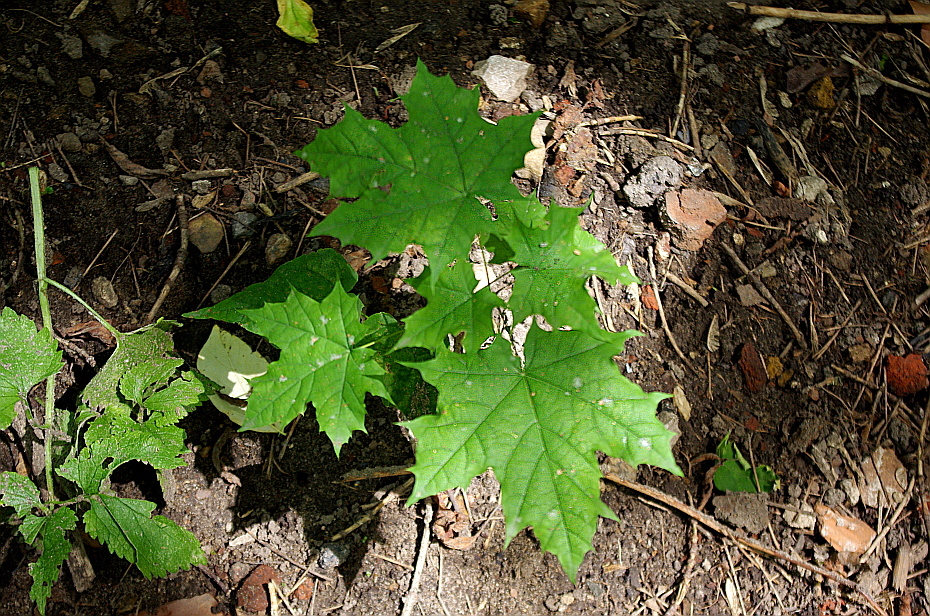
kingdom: Plantae
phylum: Tracheophyta
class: Magnoliopsida
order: Sapindales
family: Sapindaceae
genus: Acer
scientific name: Acer platanoides
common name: Norway maple
